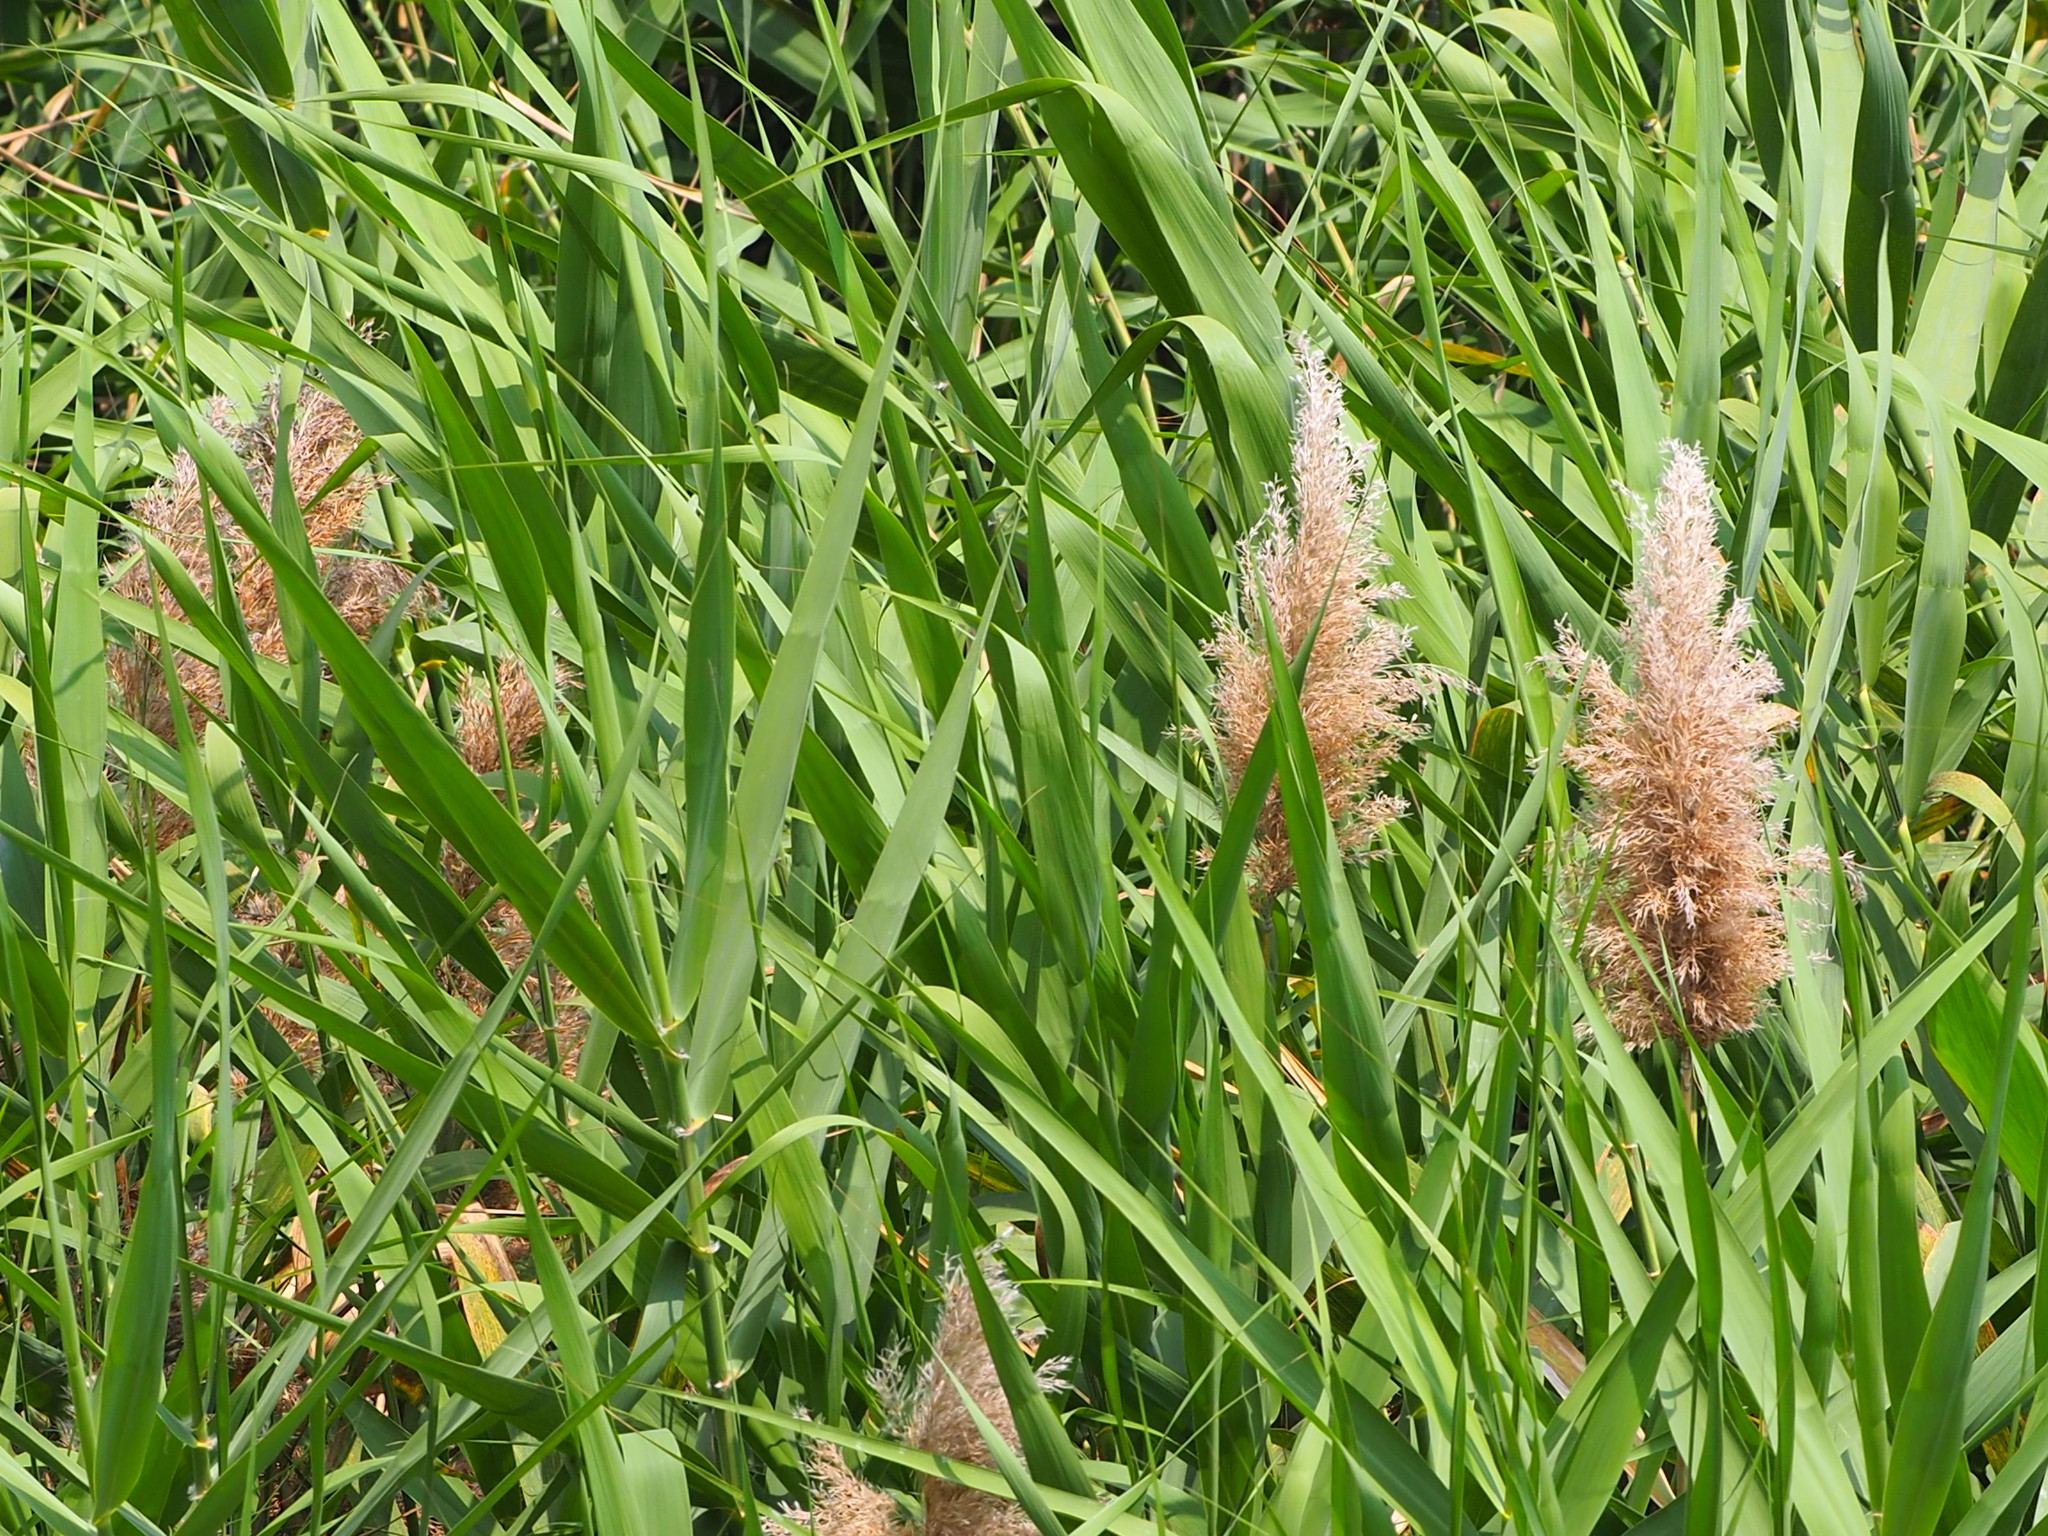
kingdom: Plantae
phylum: Tracheophyta
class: Liliopsida
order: Poales
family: Poaceae
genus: Phragmites
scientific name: Phragmites australis
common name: Common reed
